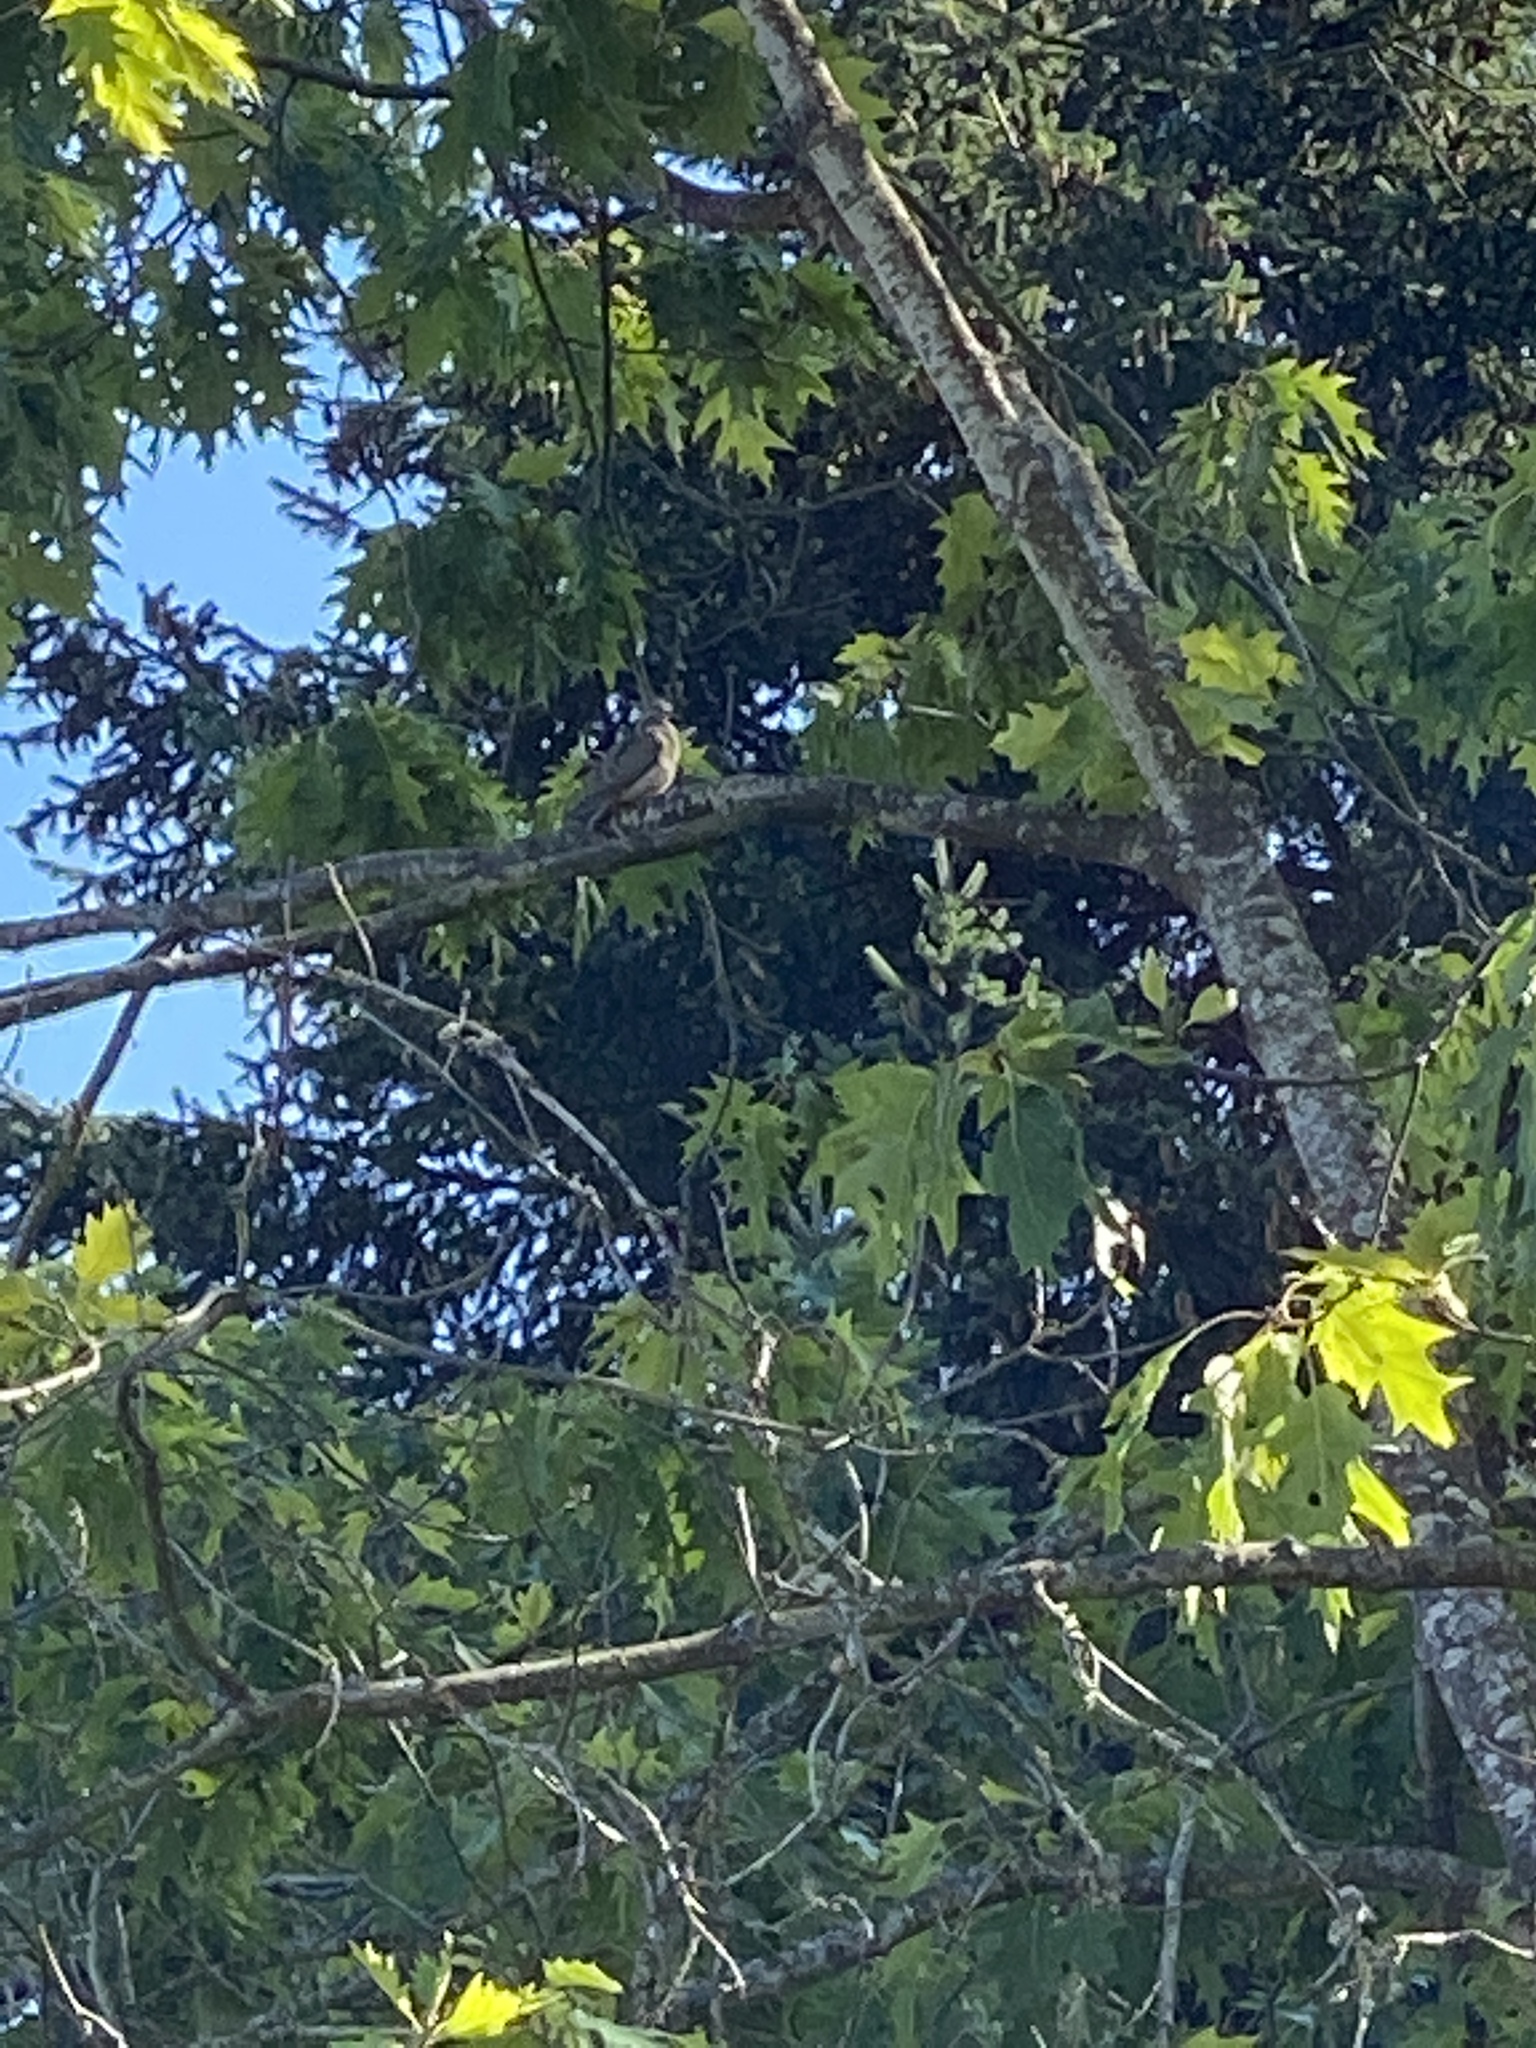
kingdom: Animalia
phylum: Chordata
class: Aves
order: Columbiformes
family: Columbidae
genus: Zenaida
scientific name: Zenaida macroura
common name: Mourning dove
